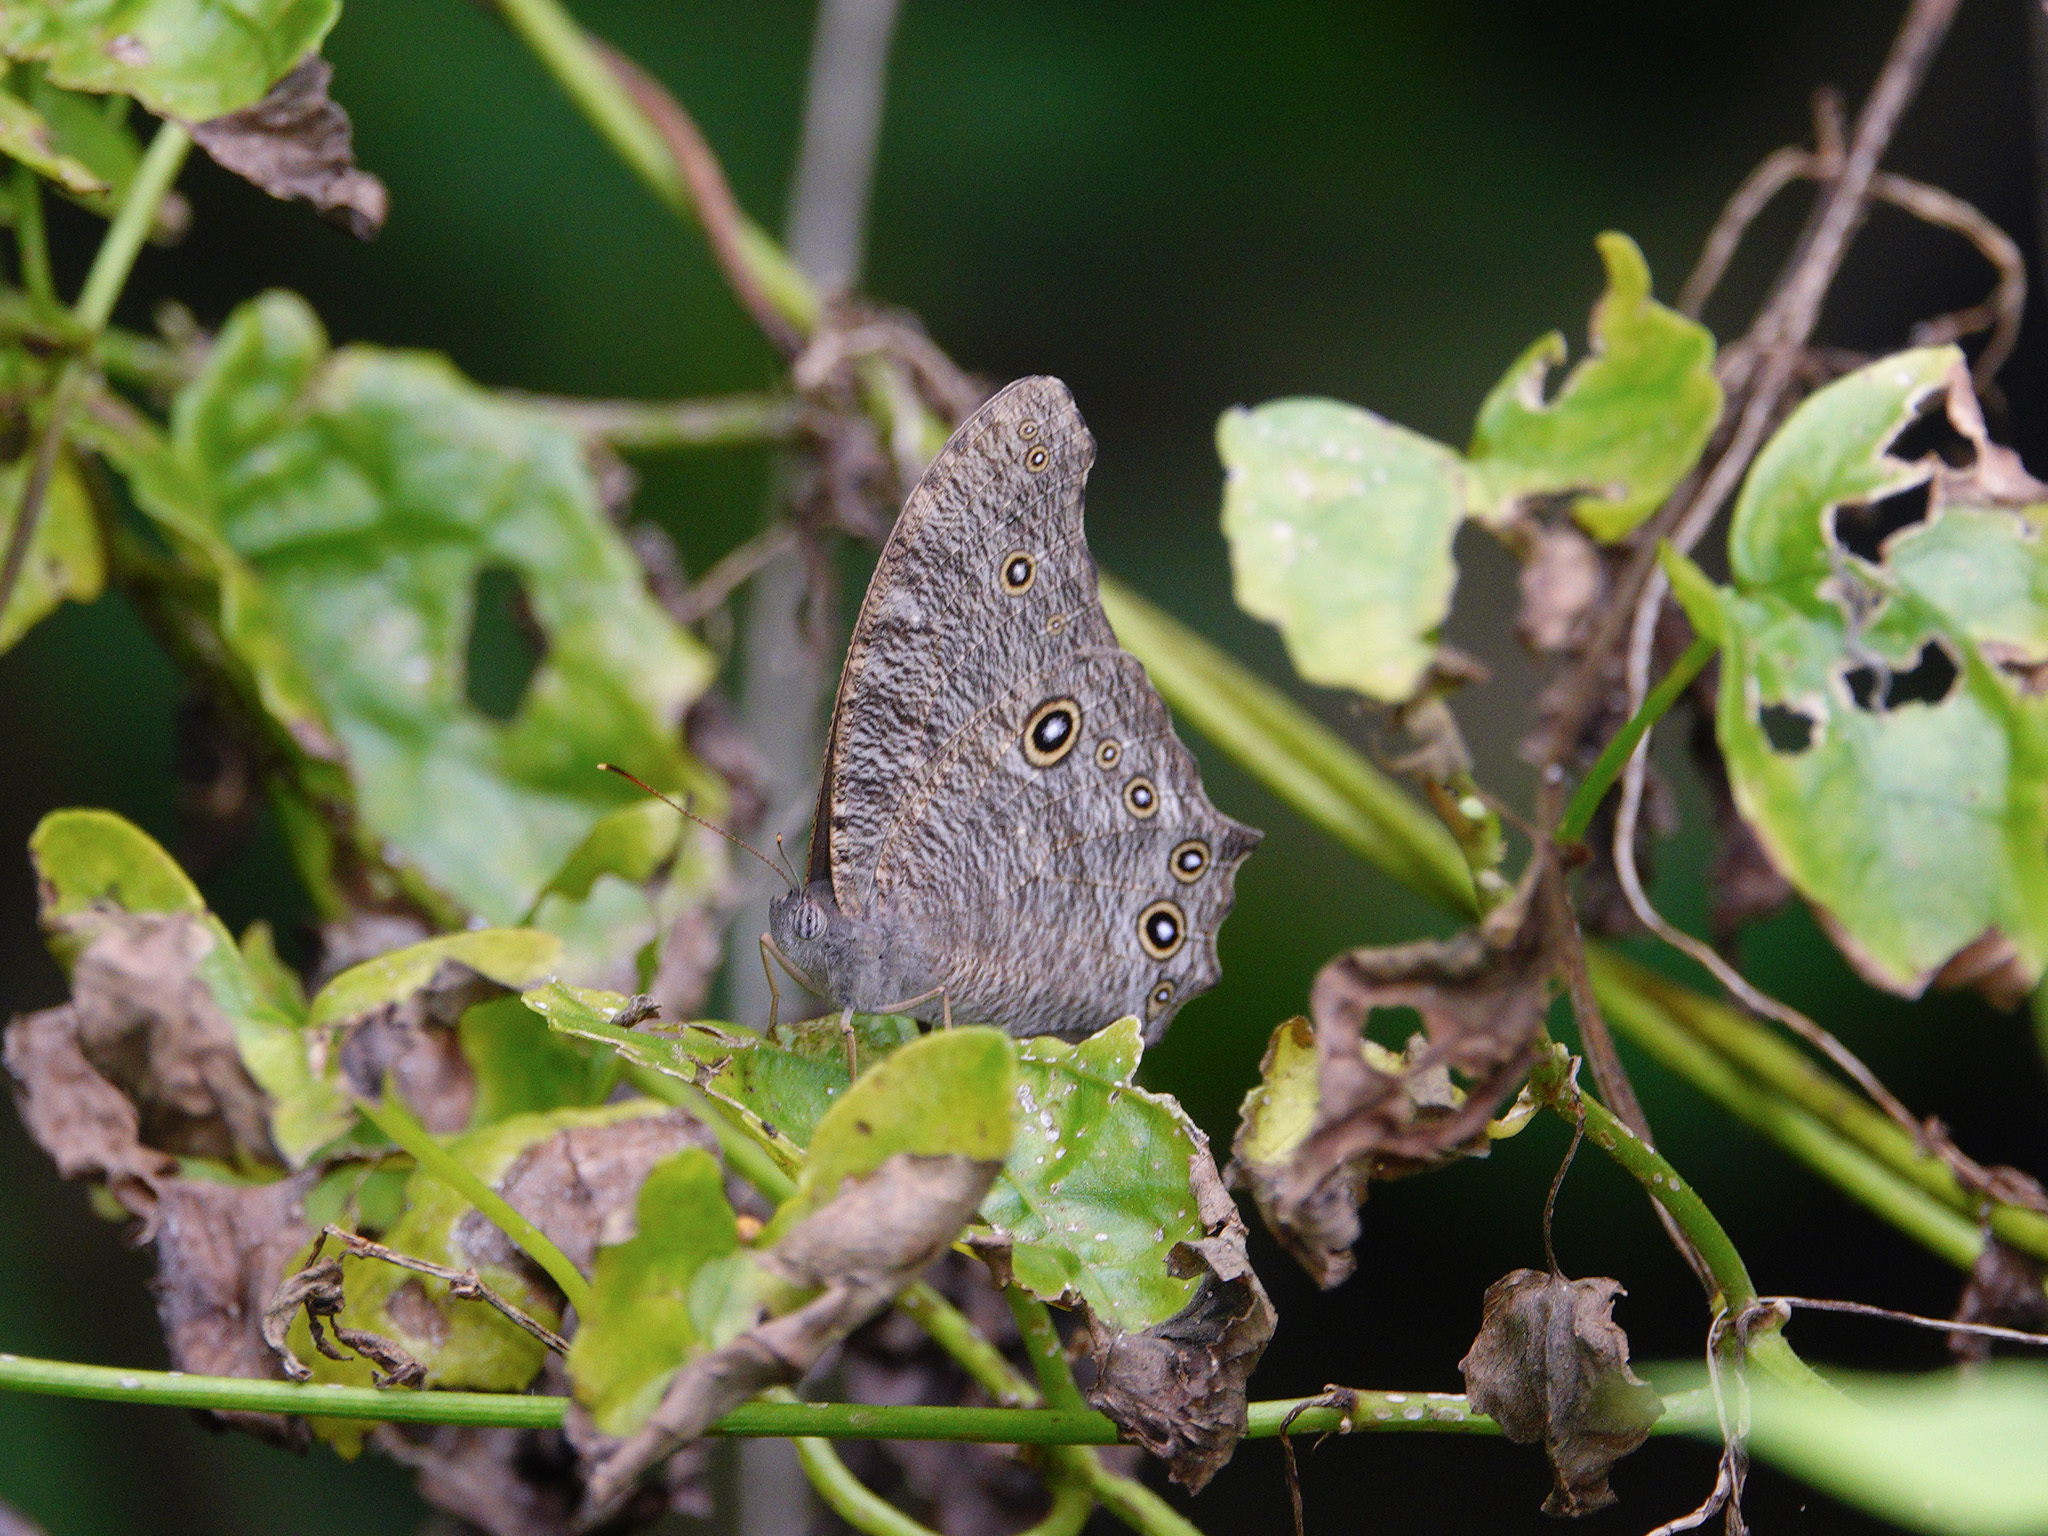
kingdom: Animalia
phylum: Arthropoda
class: Insecta
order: Lepidoptera
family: Nymphalidae
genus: Melanitis
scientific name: Melanitis leda
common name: Twilight brown
